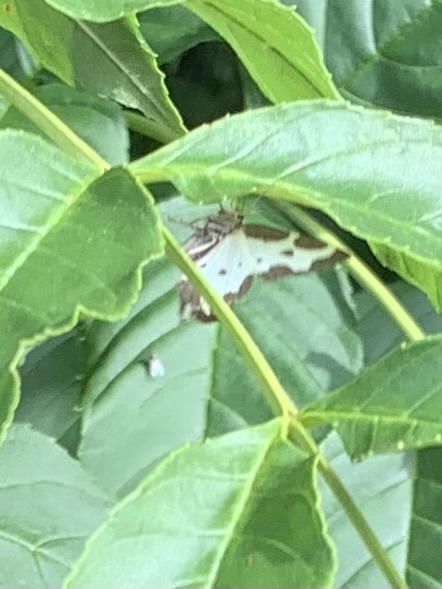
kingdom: Animalia
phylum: Arthropoda
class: Insecta
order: Lepidoptera
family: Geometridae
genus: Lomaspilis
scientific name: Lomaspilis marginata
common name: Clouded border
